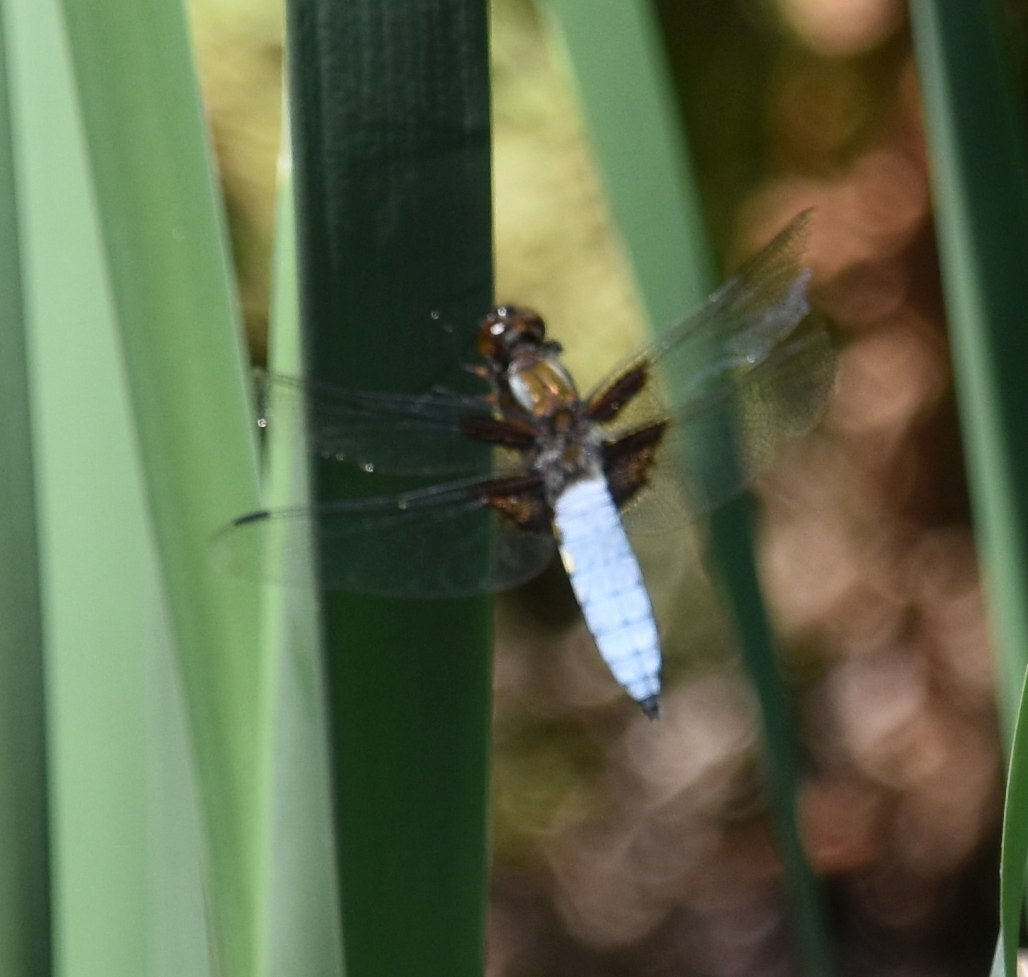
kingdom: Animalia
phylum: Arthropoda
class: Insecta
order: Odonata
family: Libellulidae
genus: Libellula
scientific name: Libellula depressa
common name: Broad-bodied chaser
